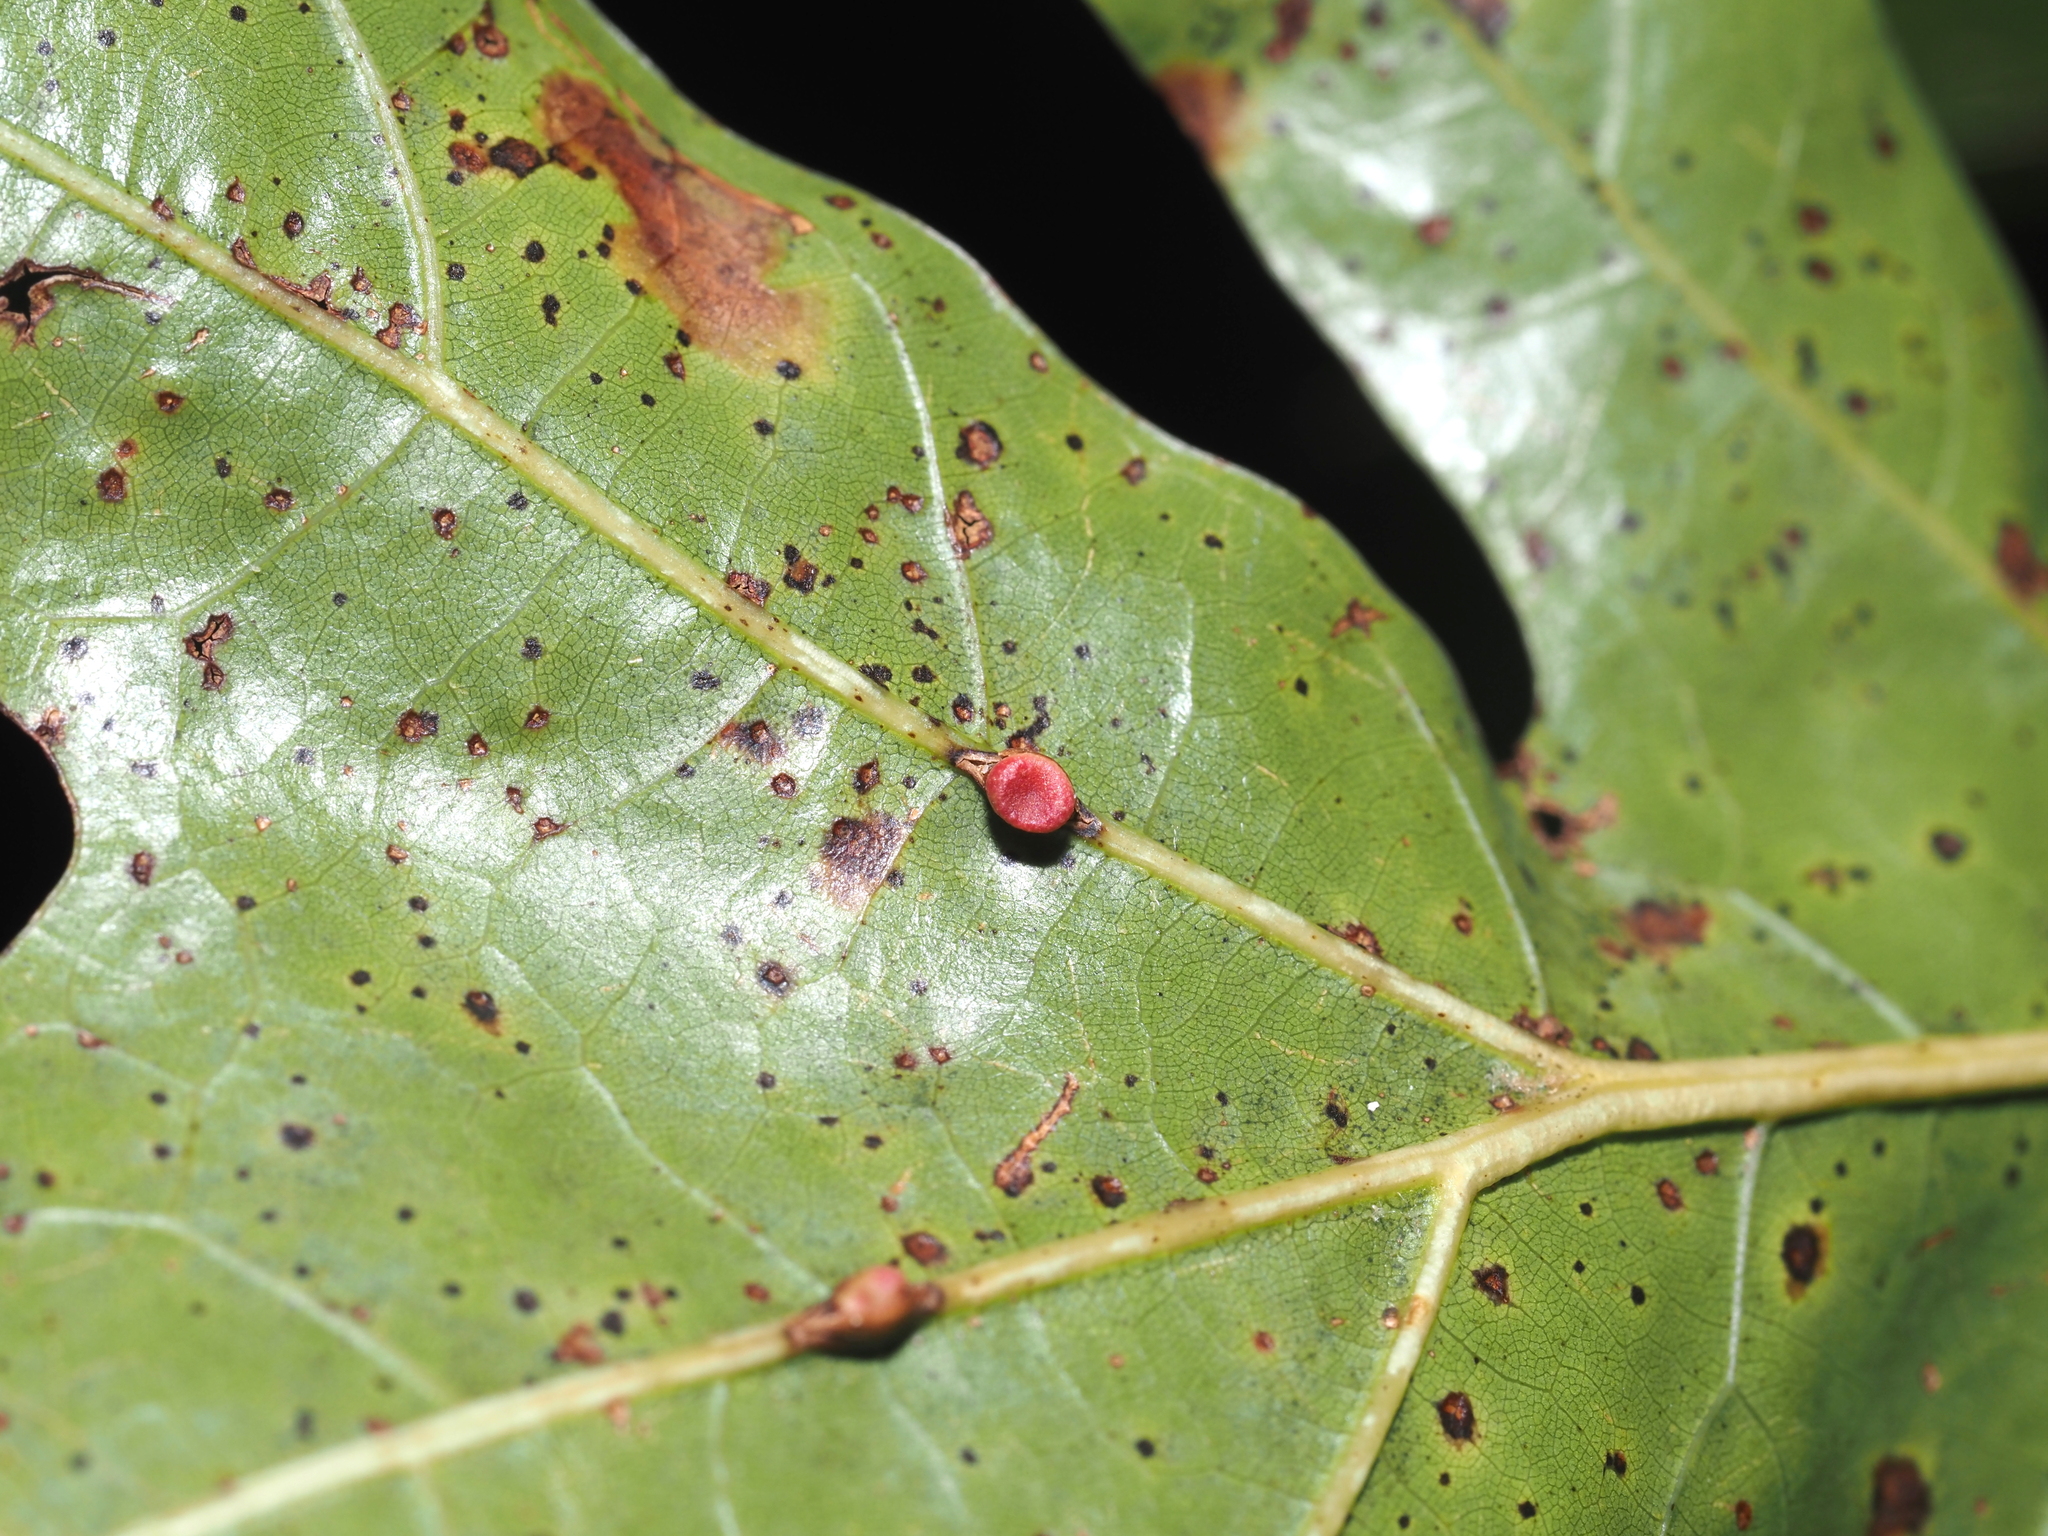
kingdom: Animalia
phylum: Arthropoda
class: Insecta
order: Hymenoptera
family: Cynipidae
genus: Kokkocynips
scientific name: Kokkocynips rileyi
